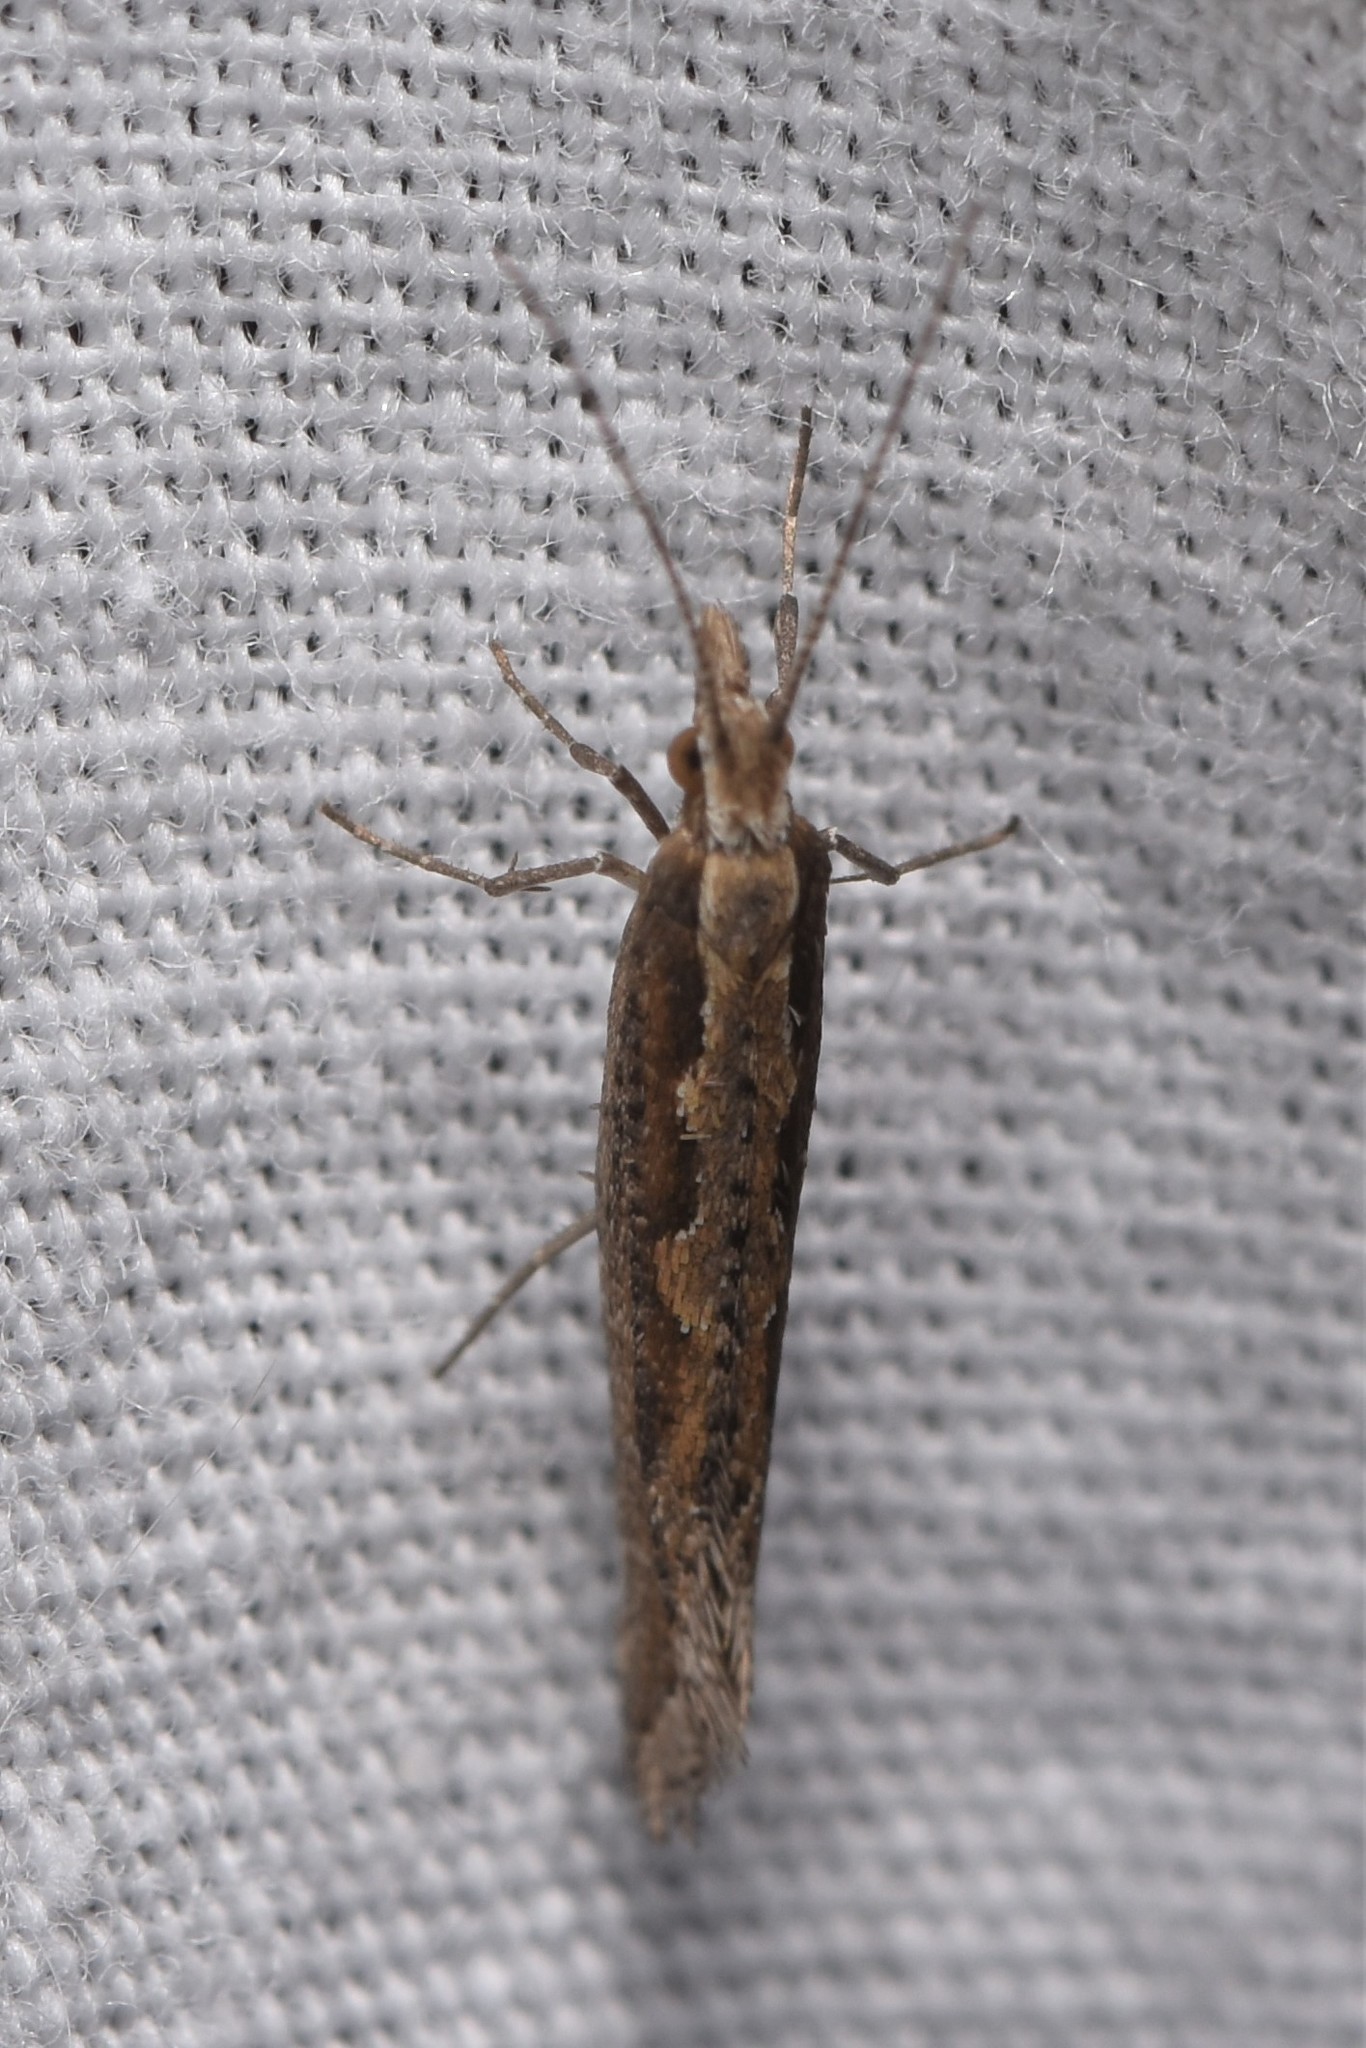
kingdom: Animalia
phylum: Arthropoda
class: Insecta
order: Lepidoptera
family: Plutellidae
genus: Plutella
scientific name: Plutella xylostella
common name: Diamond-back moth
